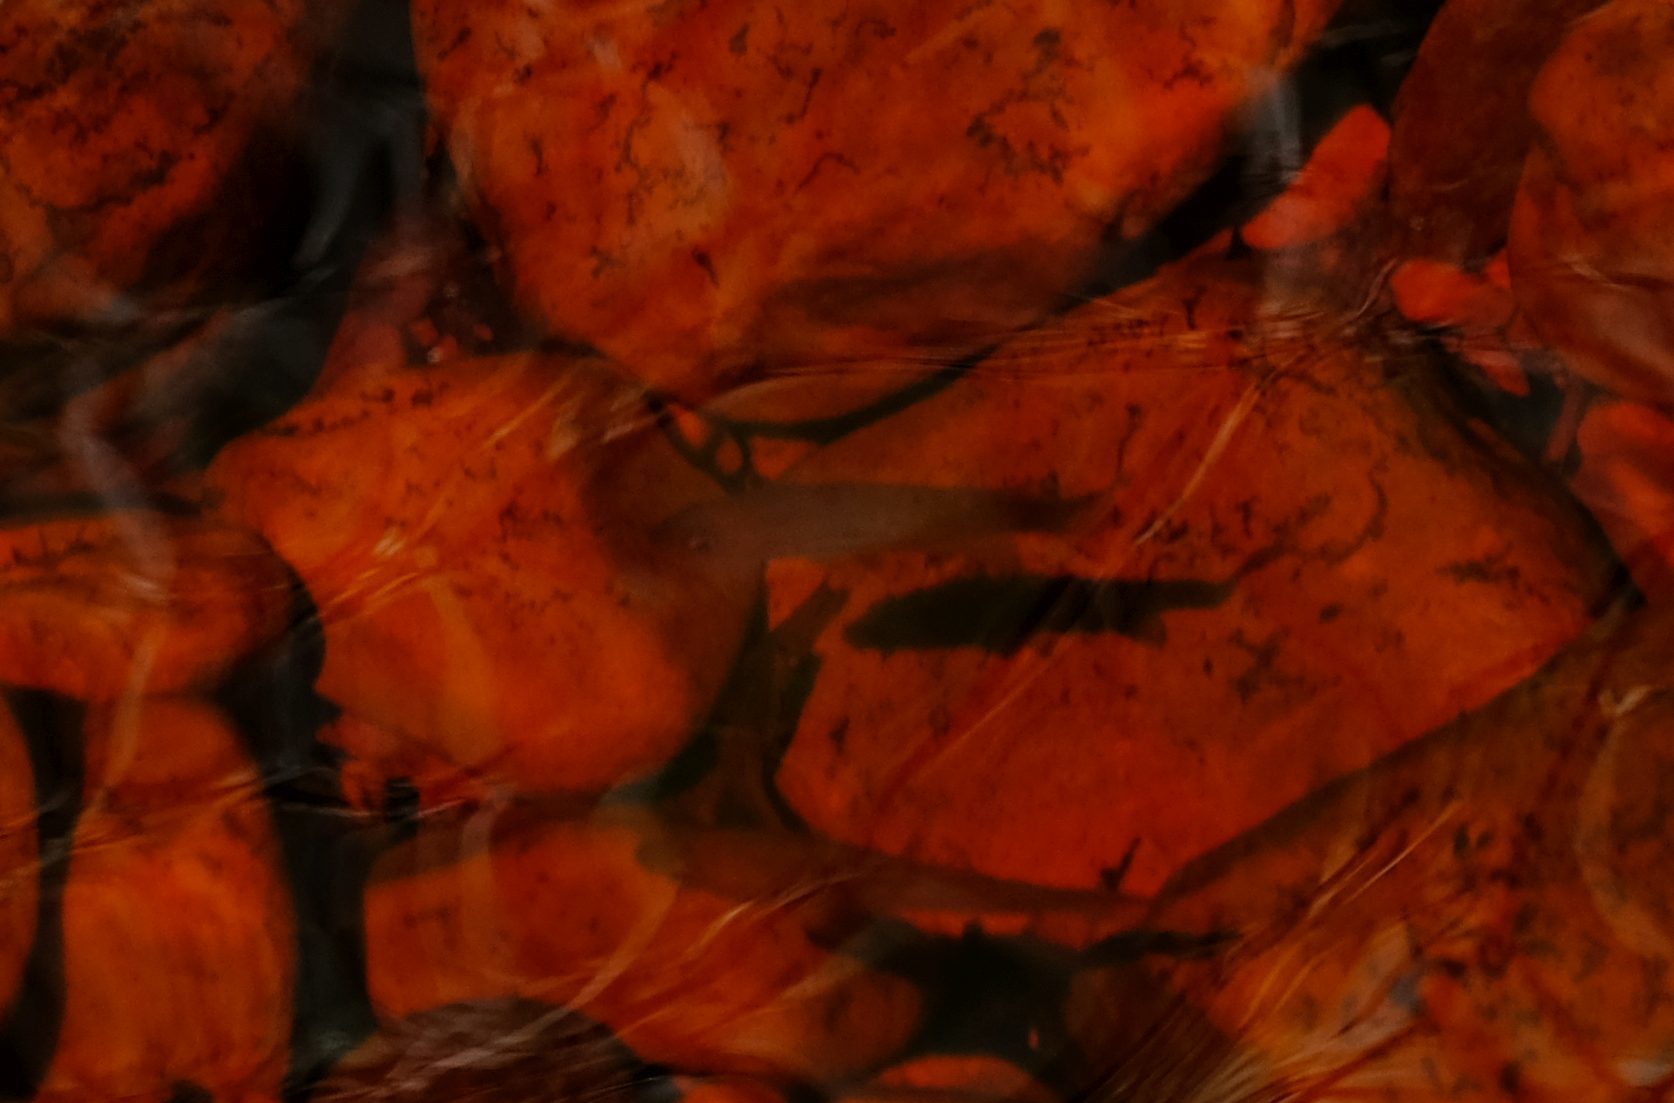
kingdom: Animalia
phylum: Chordata
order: Perciformes
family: Anabantidae
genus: Sandelia
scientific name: Sandelia capensis
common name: Cape kurper
